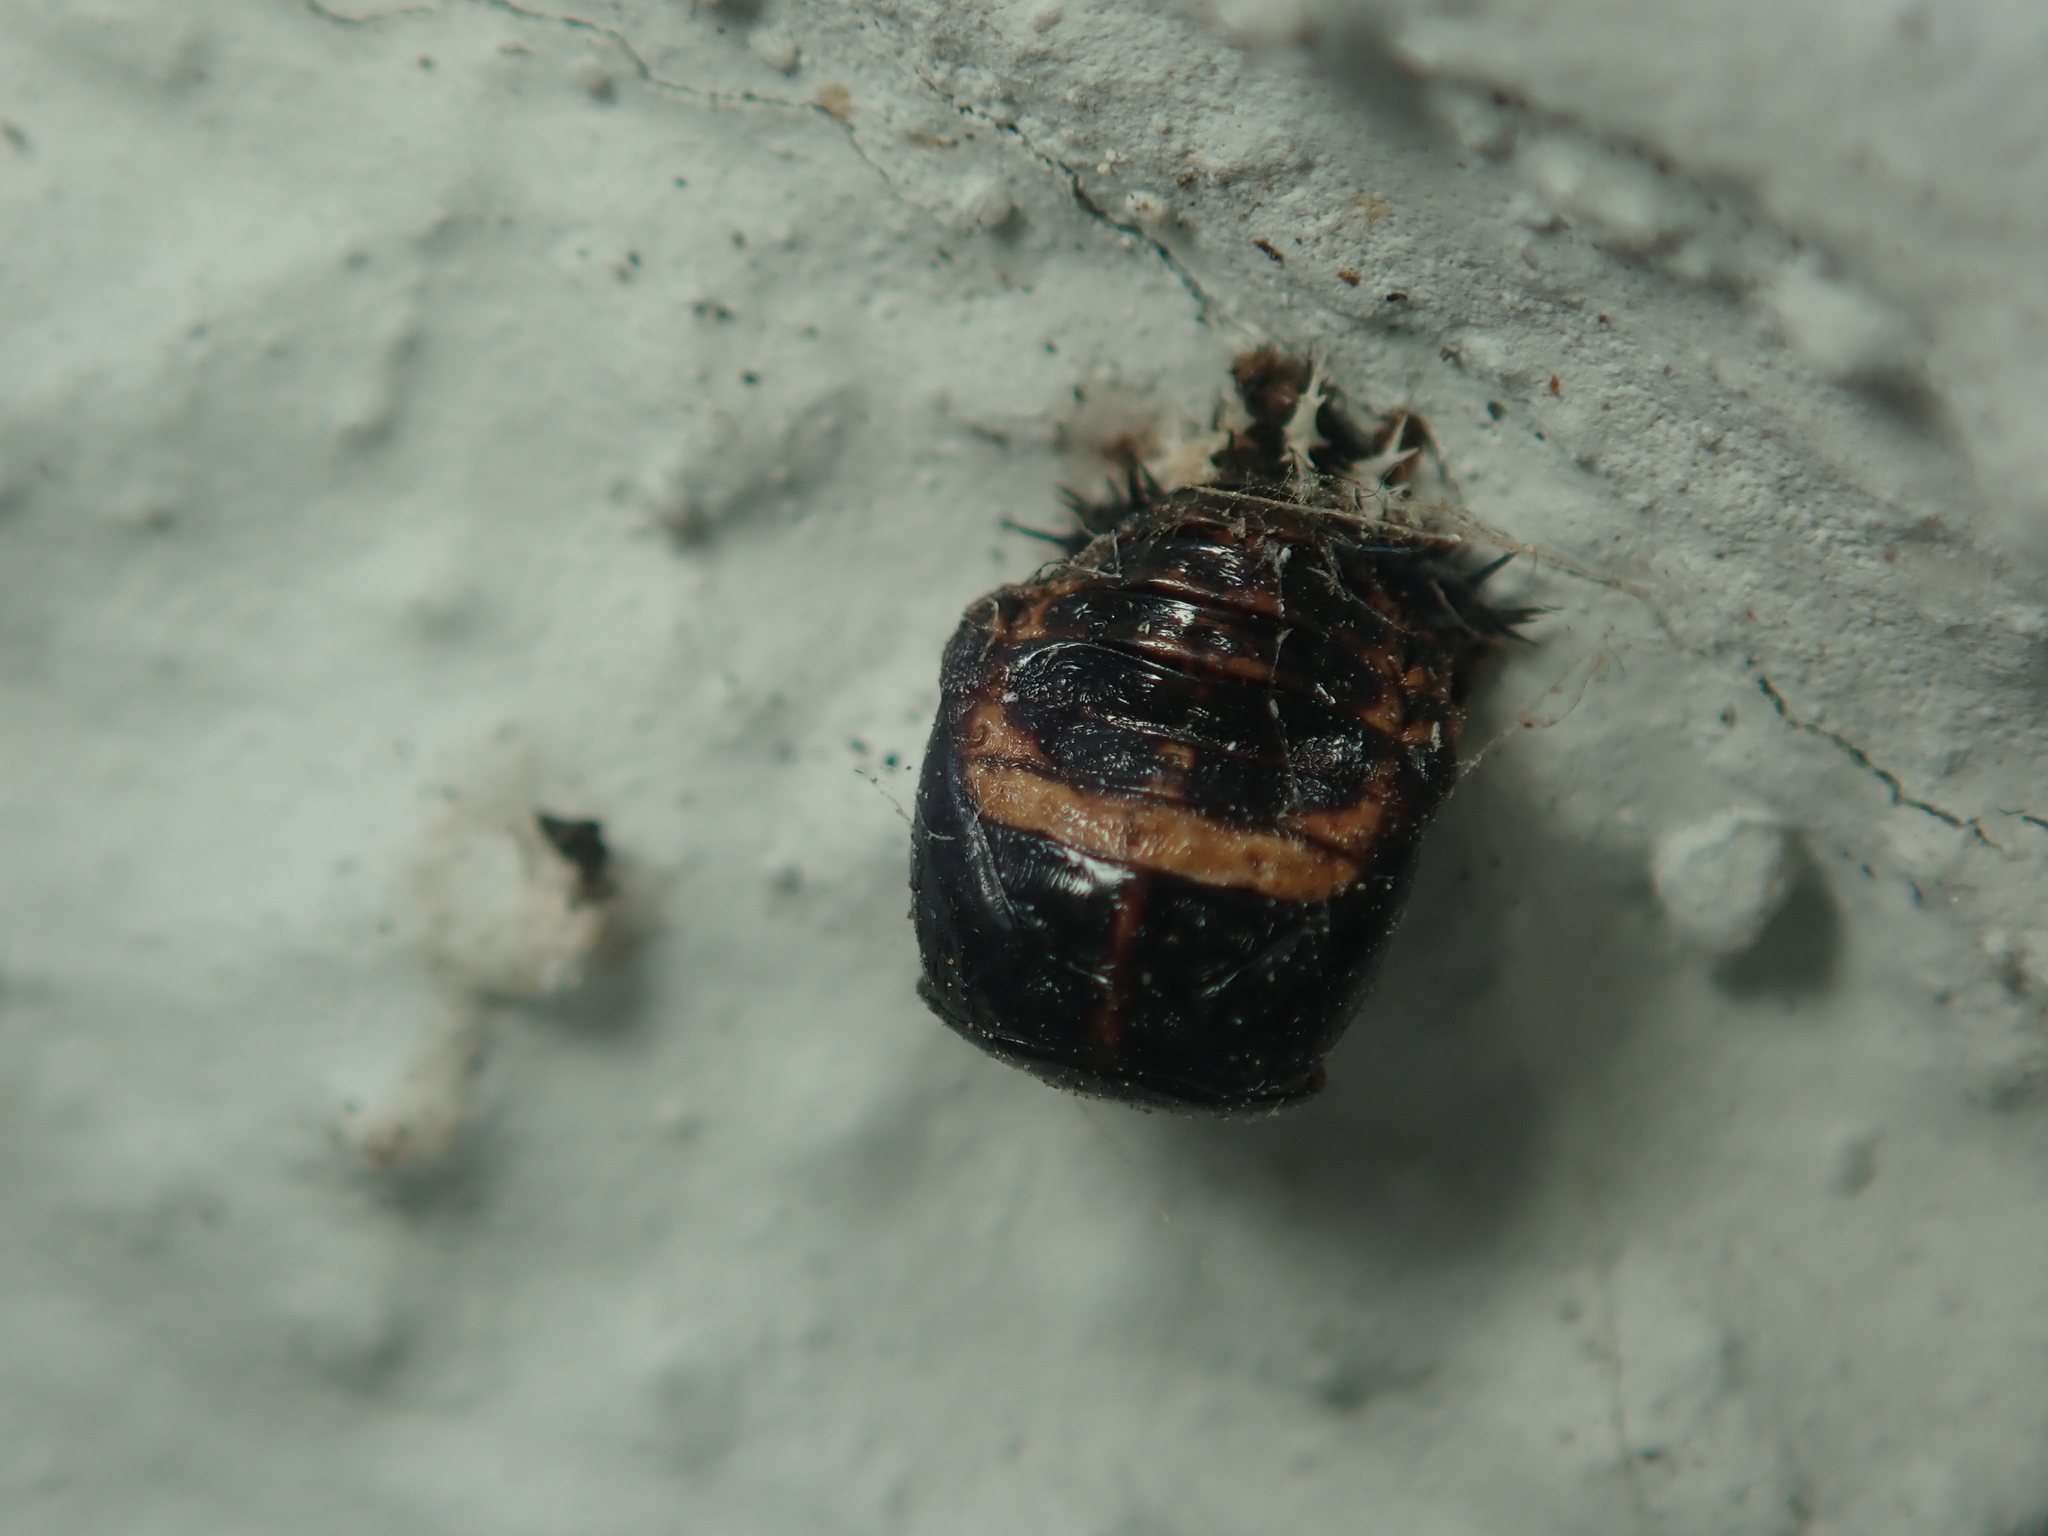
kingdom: Animalia
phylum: Arthropoda
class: Insecta
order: Coleoptera
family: Coccinellidae
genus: Harmonia
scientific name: Harmonia axyridis
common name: Harlequin ladybird
